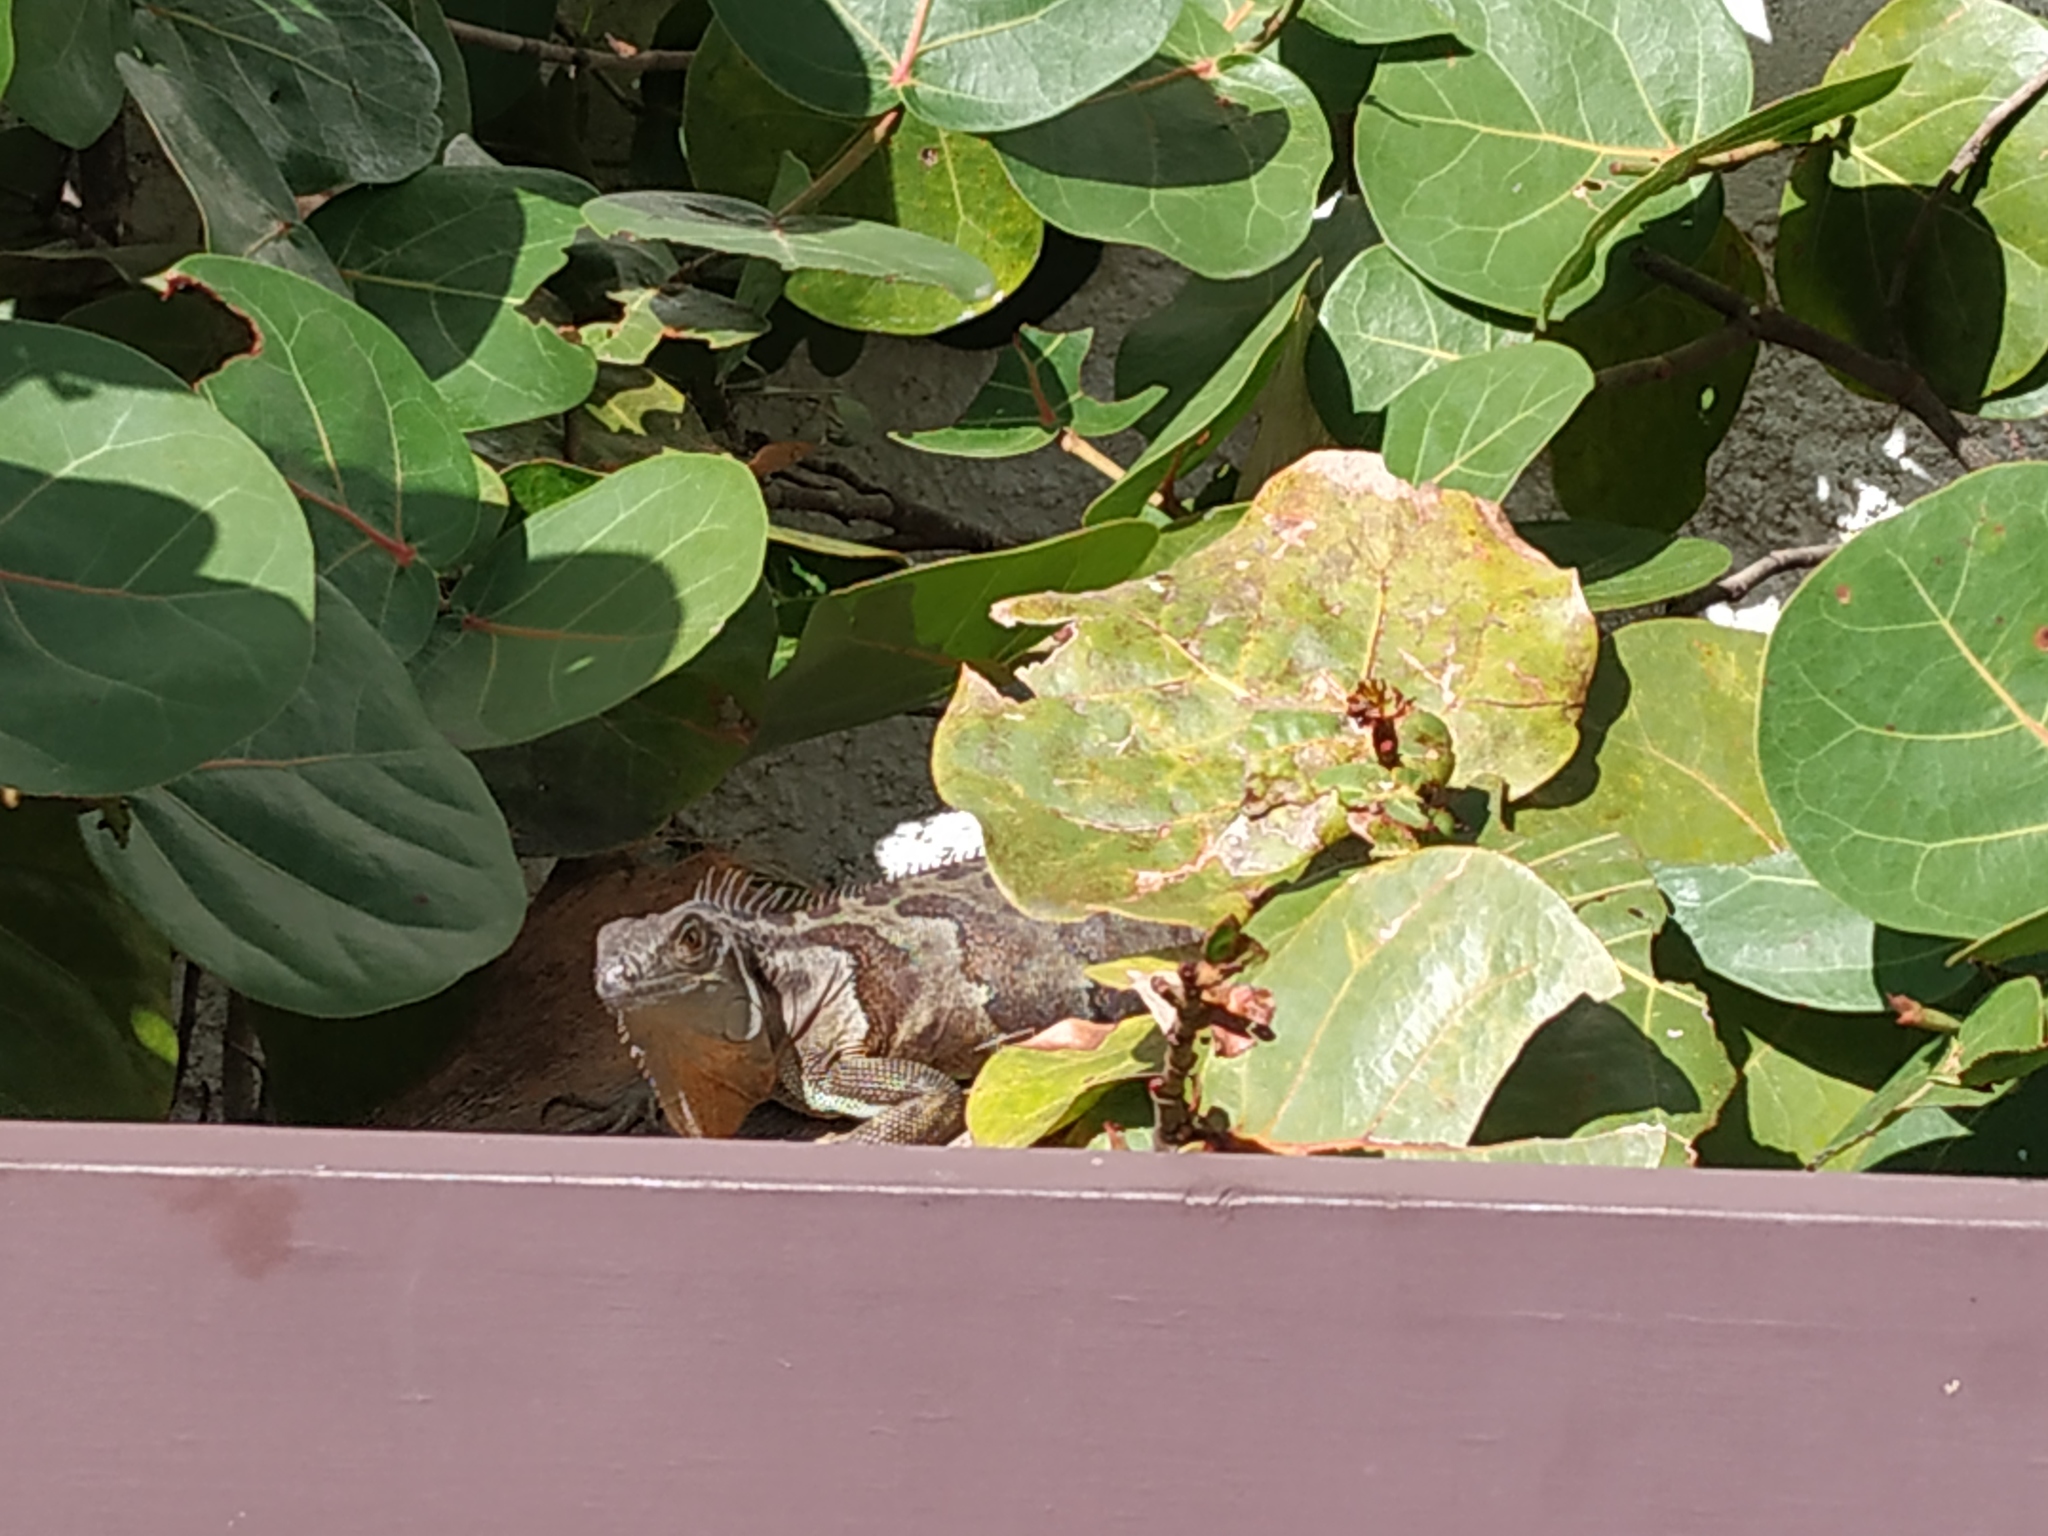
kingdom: Animalia
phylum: Chordata
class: Squamata
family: Iguanidae
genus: Iguana
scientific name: Iguana iguana
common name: Green iguana
